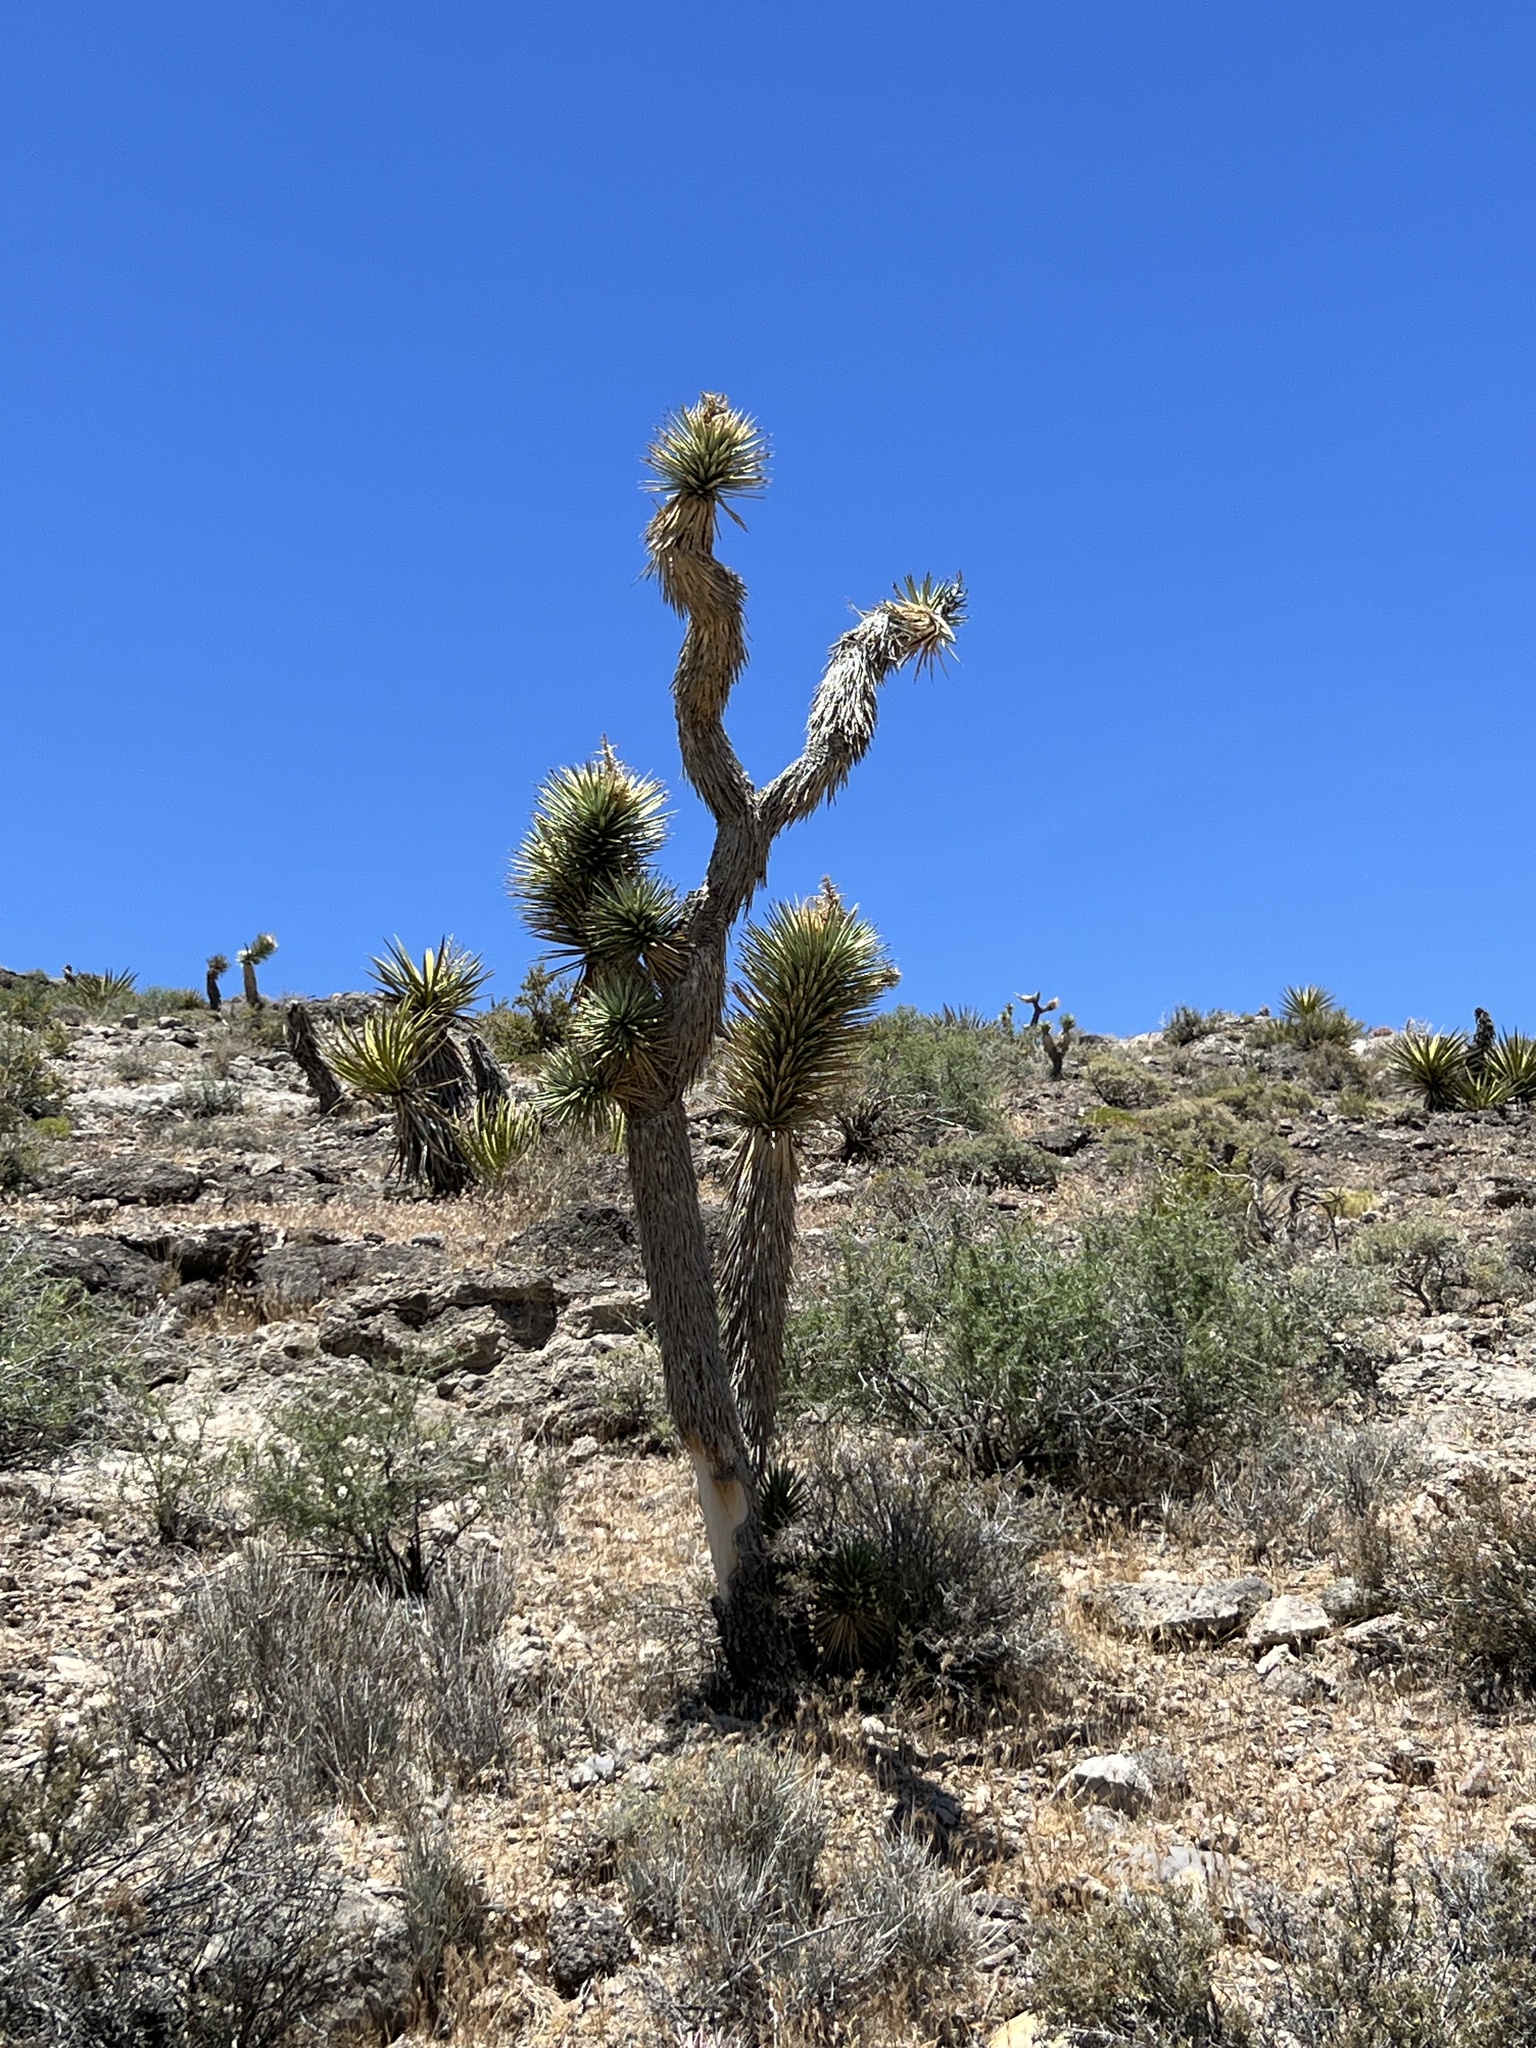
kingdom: Plantae
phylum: Tracheophyta
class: Liliopsida
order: Asparagales
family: Asparagaceae
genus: Yucca
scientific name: Yucca brevifolia
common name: Joshua tree
